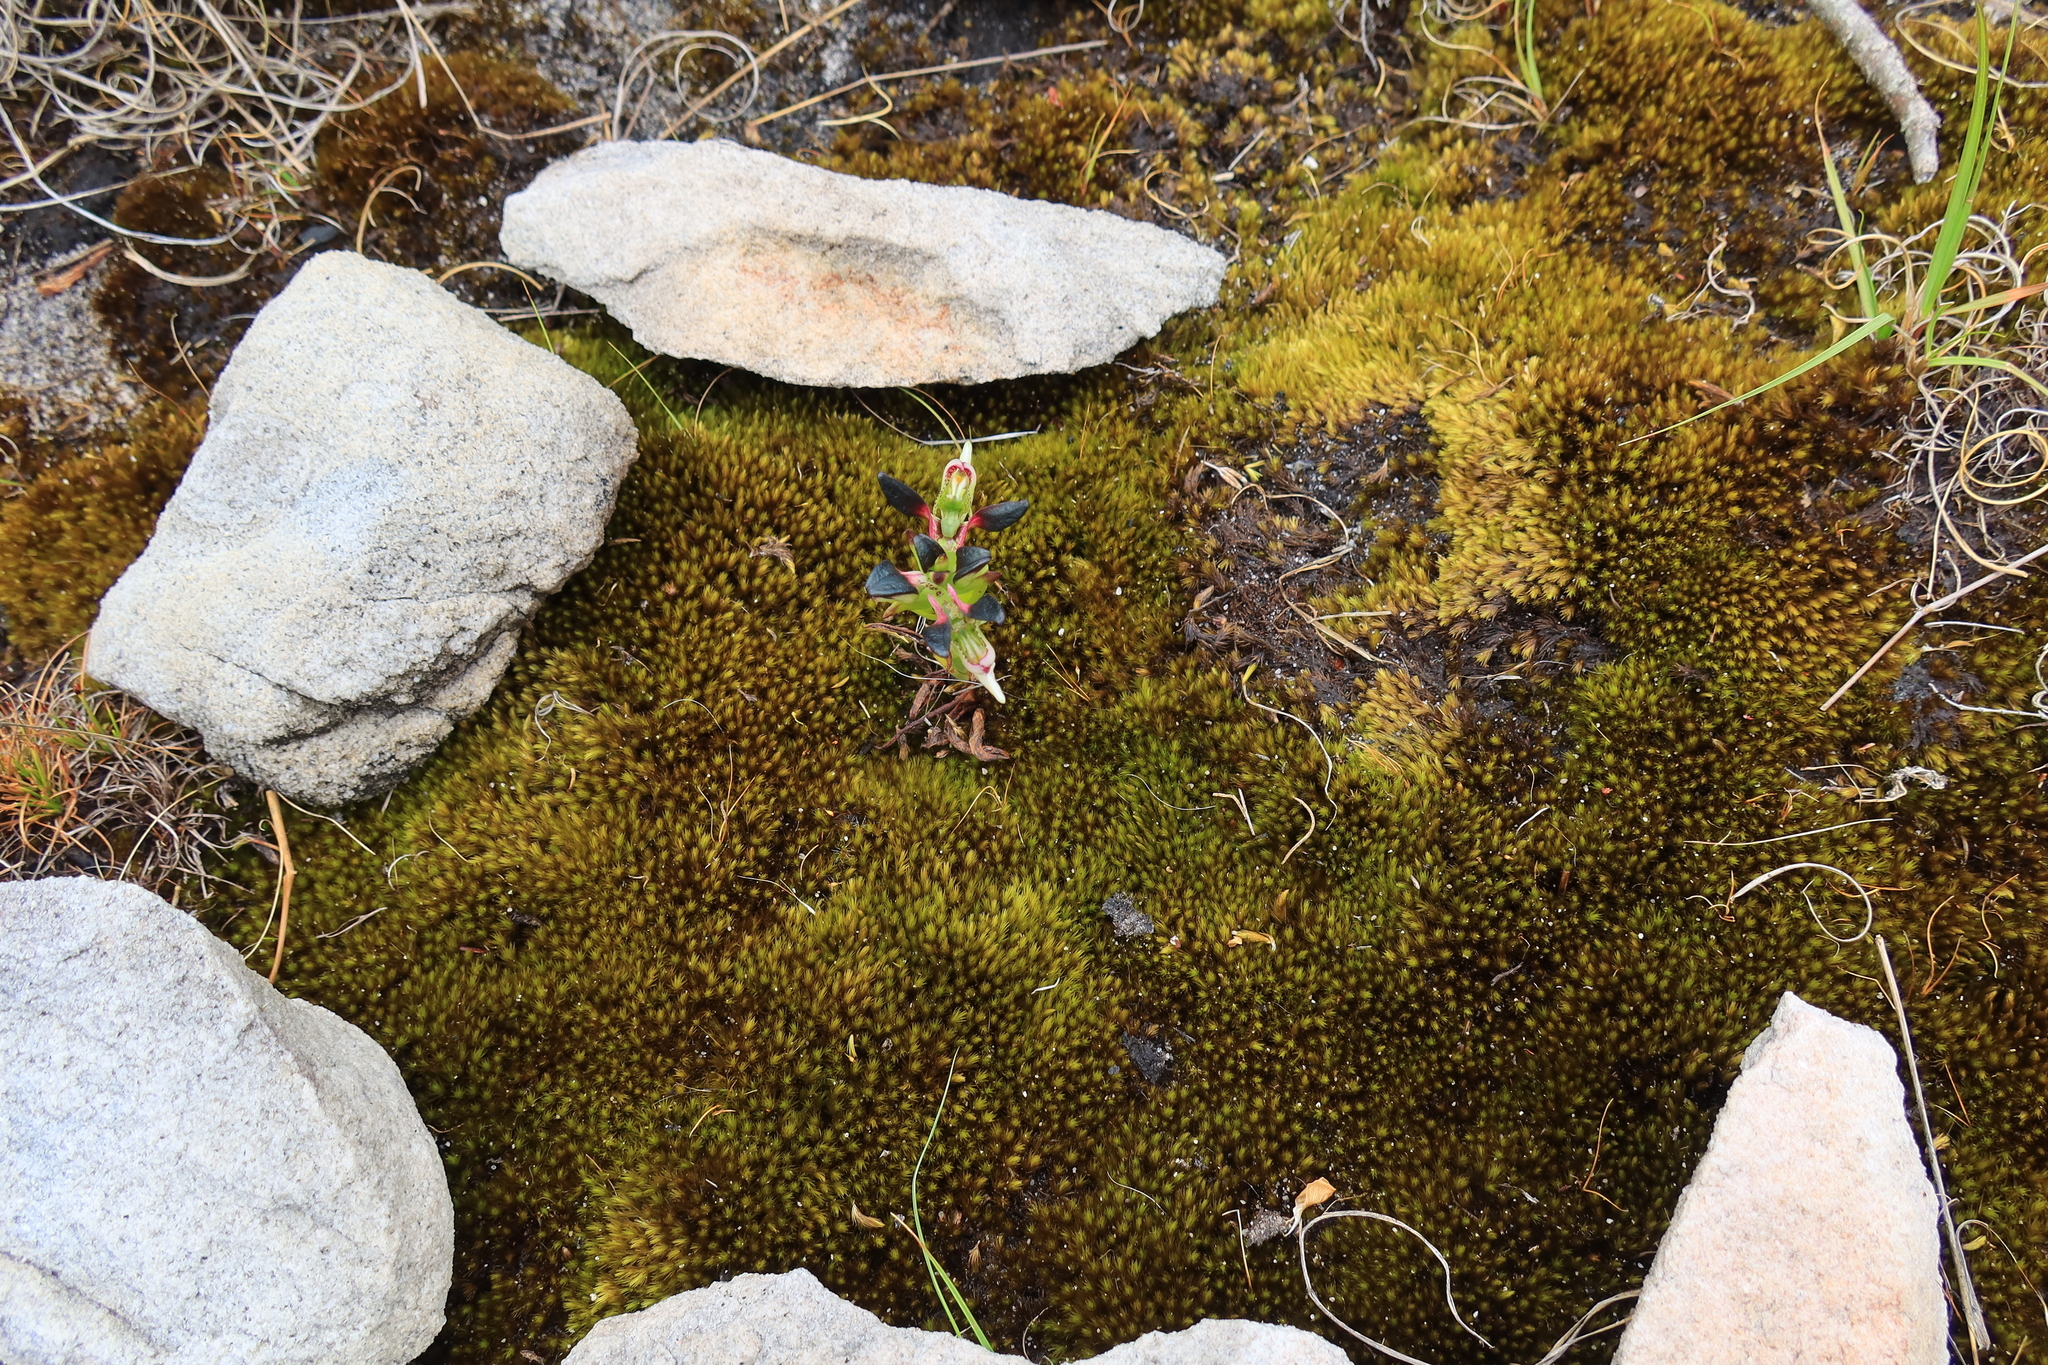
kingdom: Plantae
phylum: Tracheophyta
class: Liliopsida
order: Asparagales
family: Orchidaceae
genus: Disa
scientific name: Disa atricapilla
